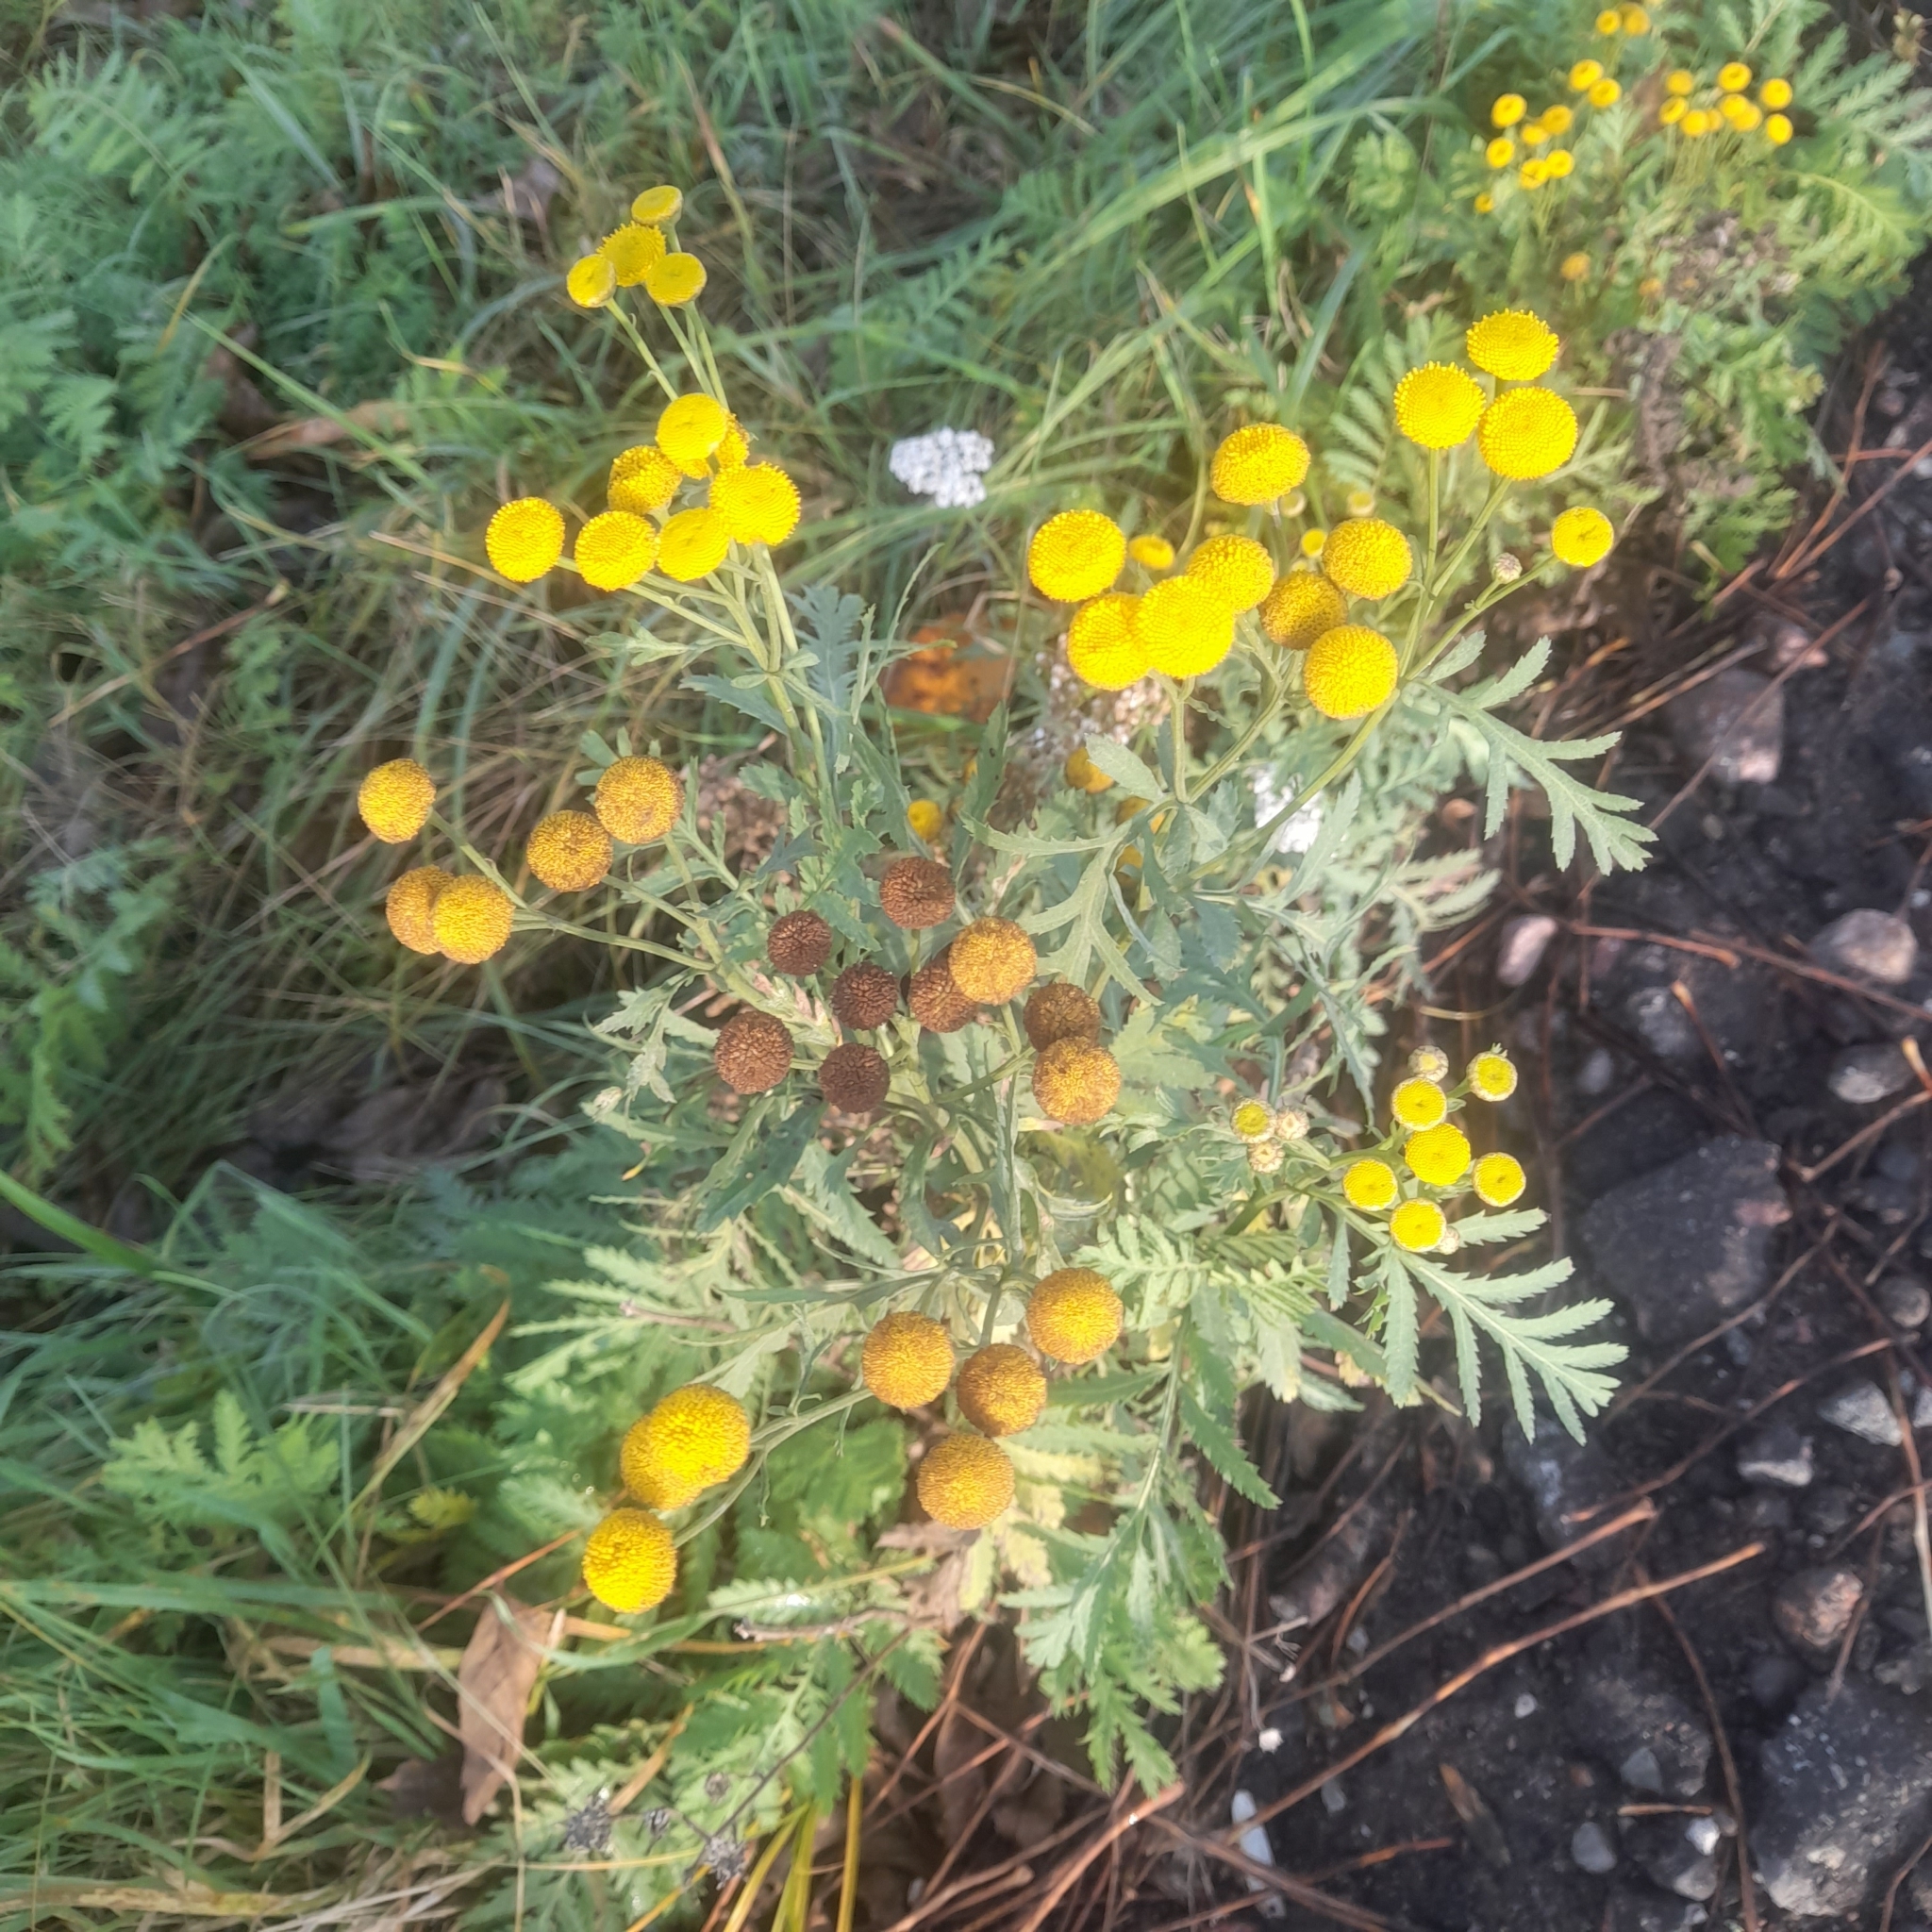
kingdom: Plantae
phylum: Tracheophyta
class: Magnoliopsida
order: Asterales
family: Asteraceae
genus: Tanacetum
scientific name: Tanacetum vulgare
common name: Common tansy
